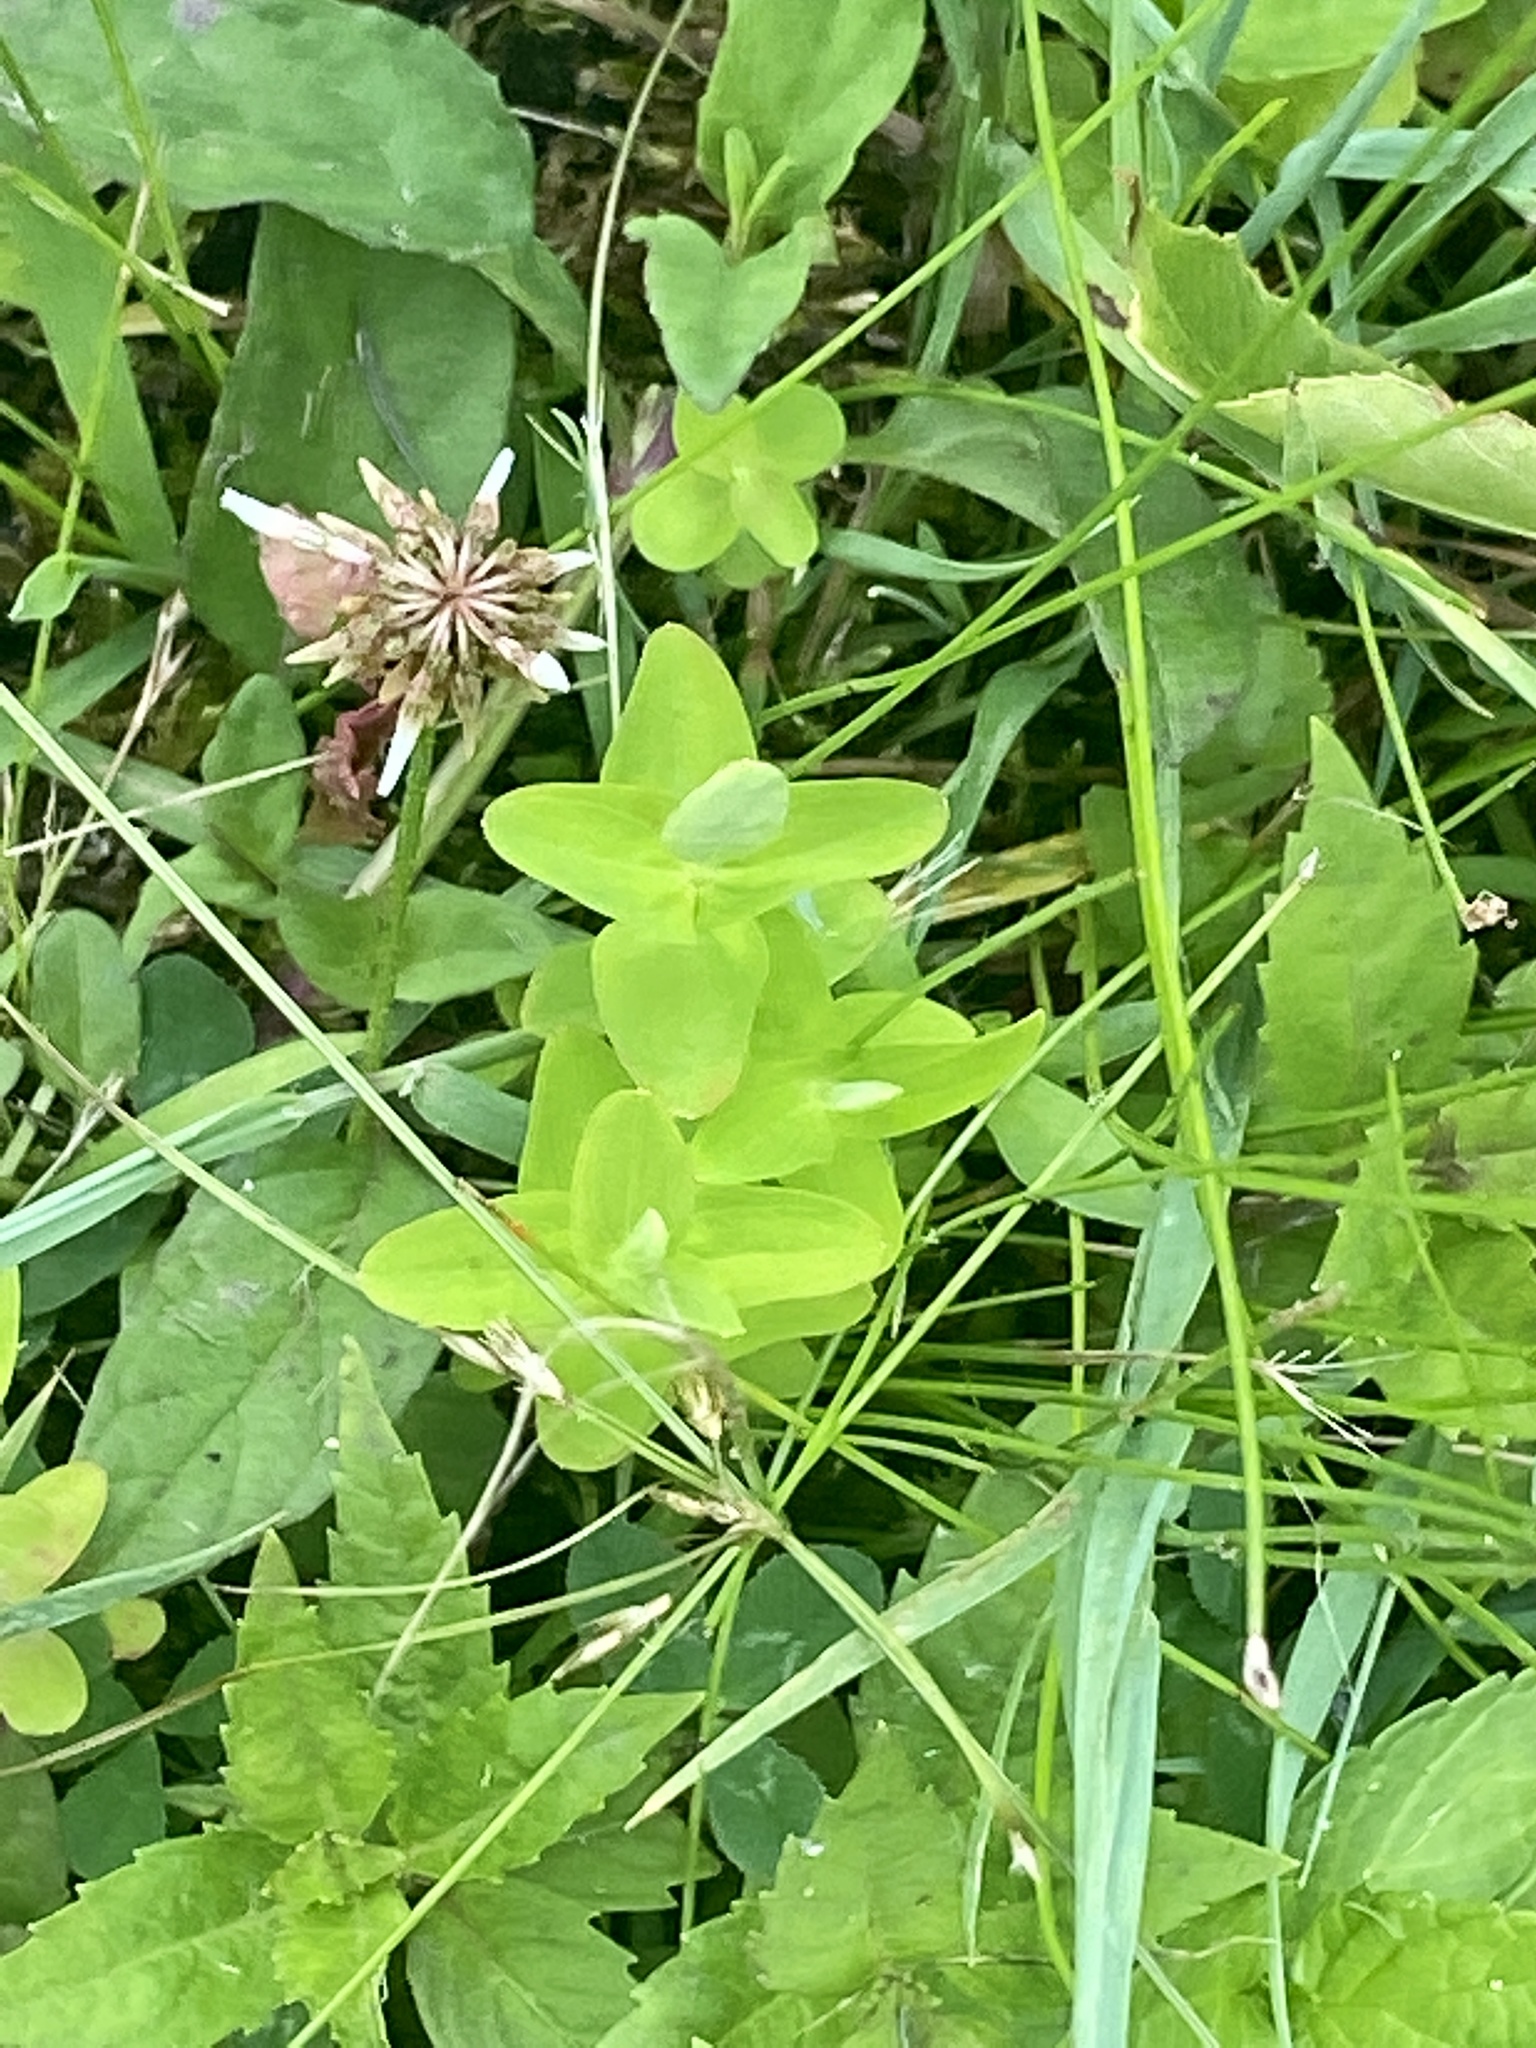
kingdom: Plantae
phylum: Tracheophyta
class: Magnoliopsida
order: Malpighiales
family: Hypericaceae
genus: Hypericum
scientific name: Hypericum mutilum
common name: Dwarf st. john's-wort
